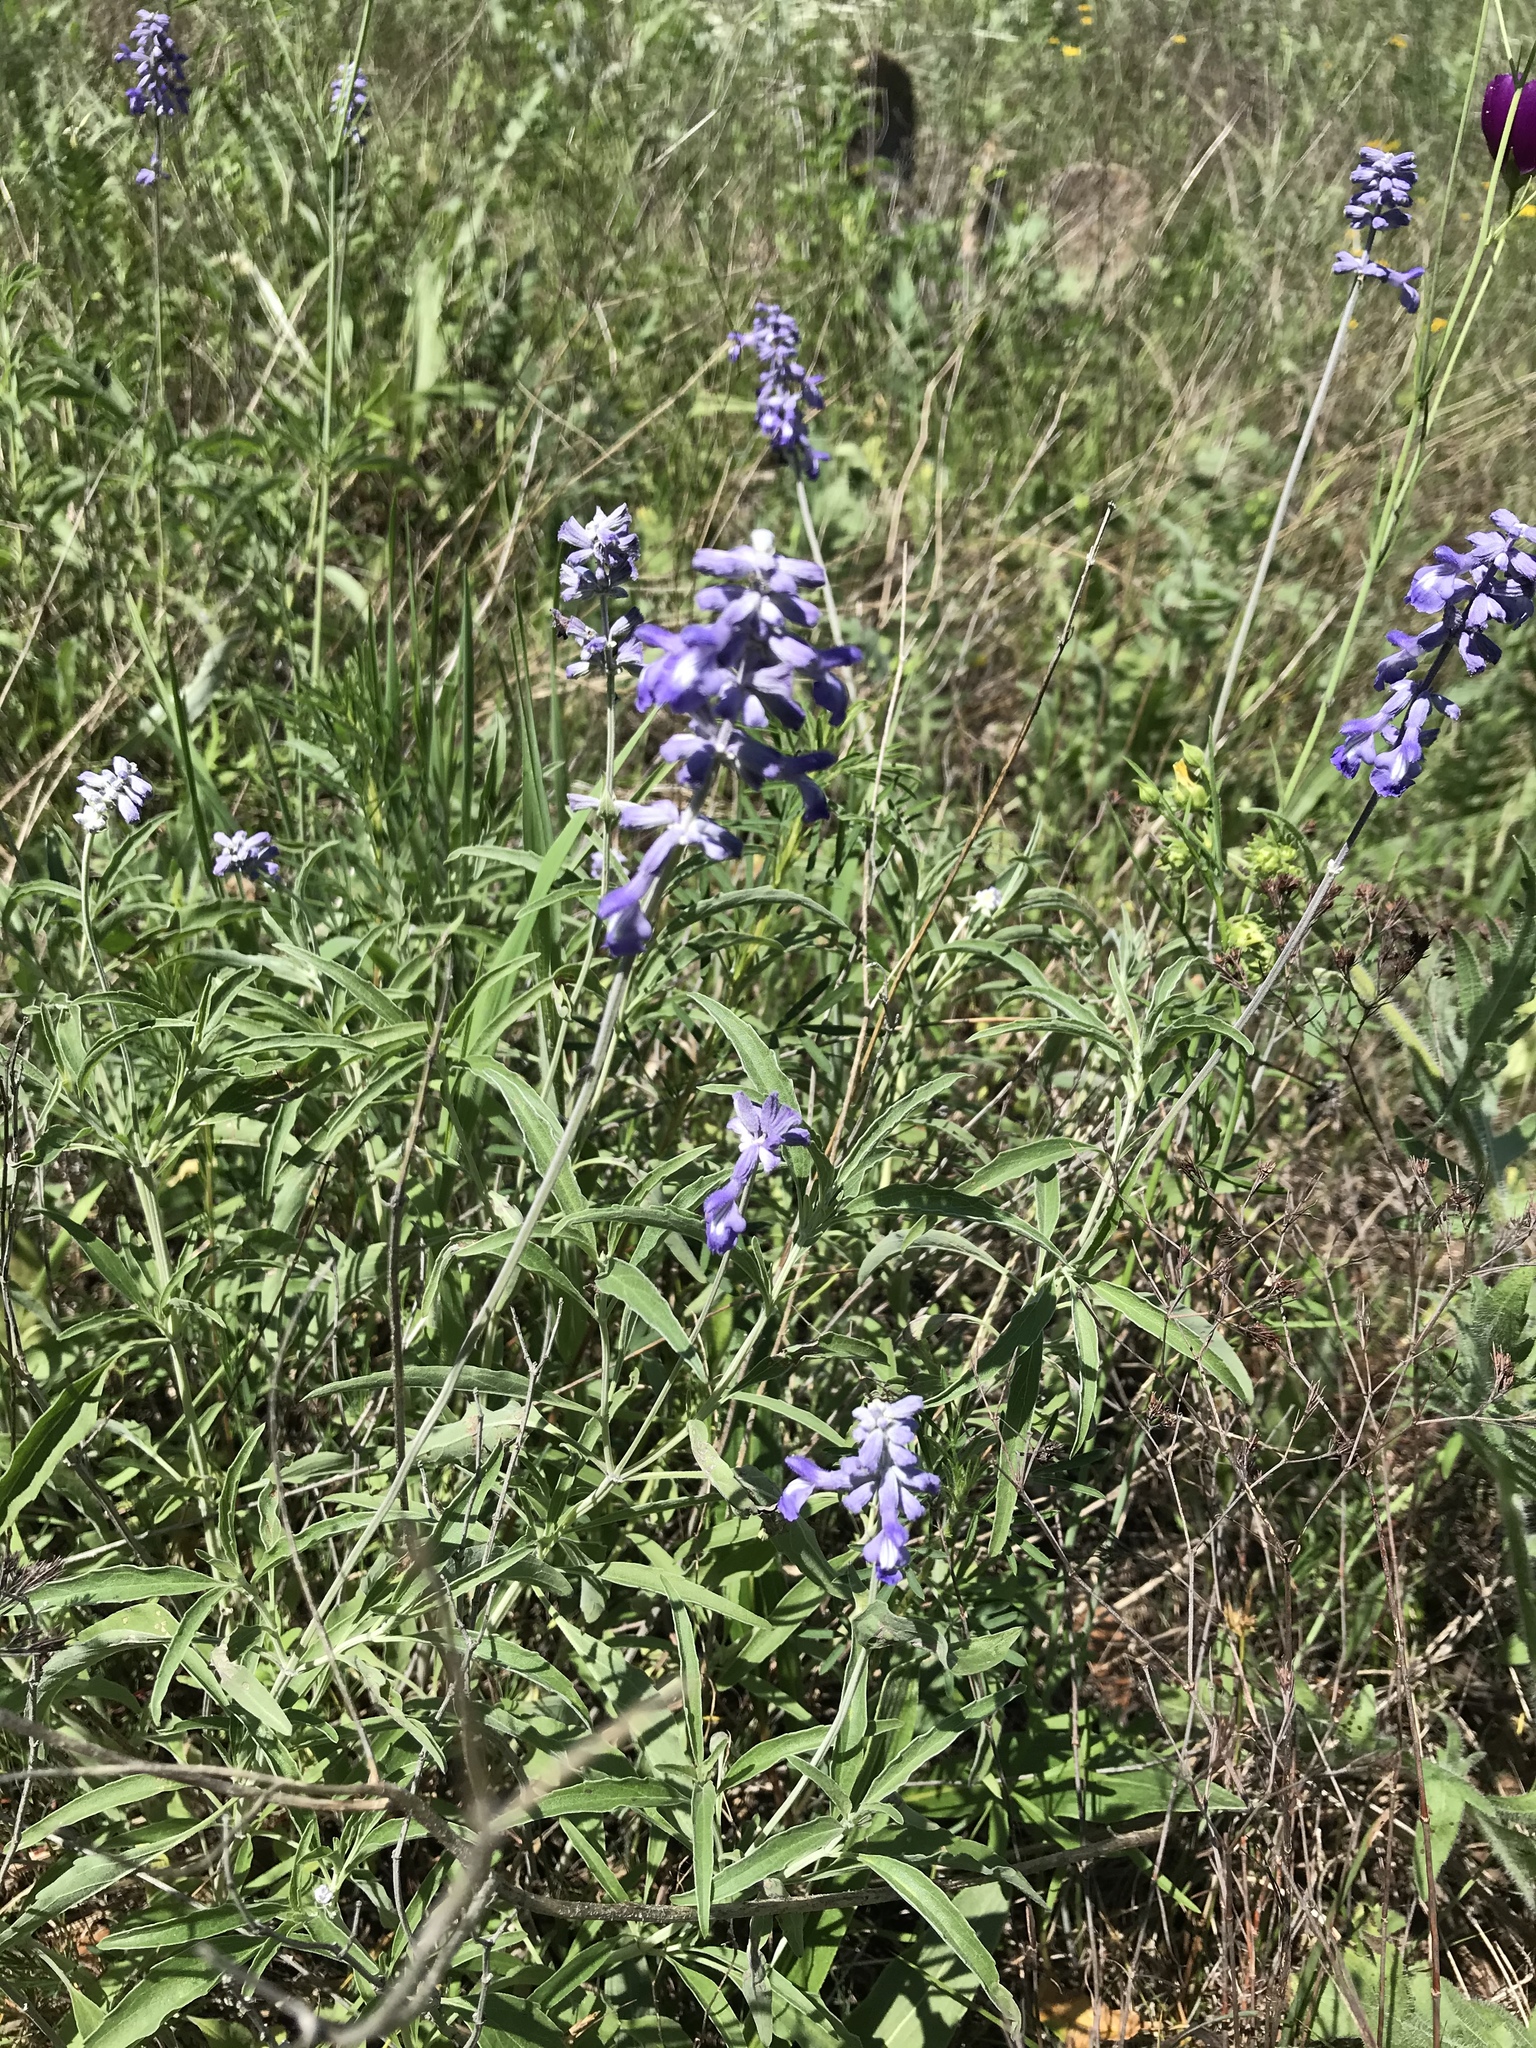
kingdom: Plantae
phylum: Tracheophyta
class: Magnoliopsida
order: Lamiales
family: Lamiaceae
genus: Salvia
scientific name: Salvia farinacea
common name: Mealy sage
